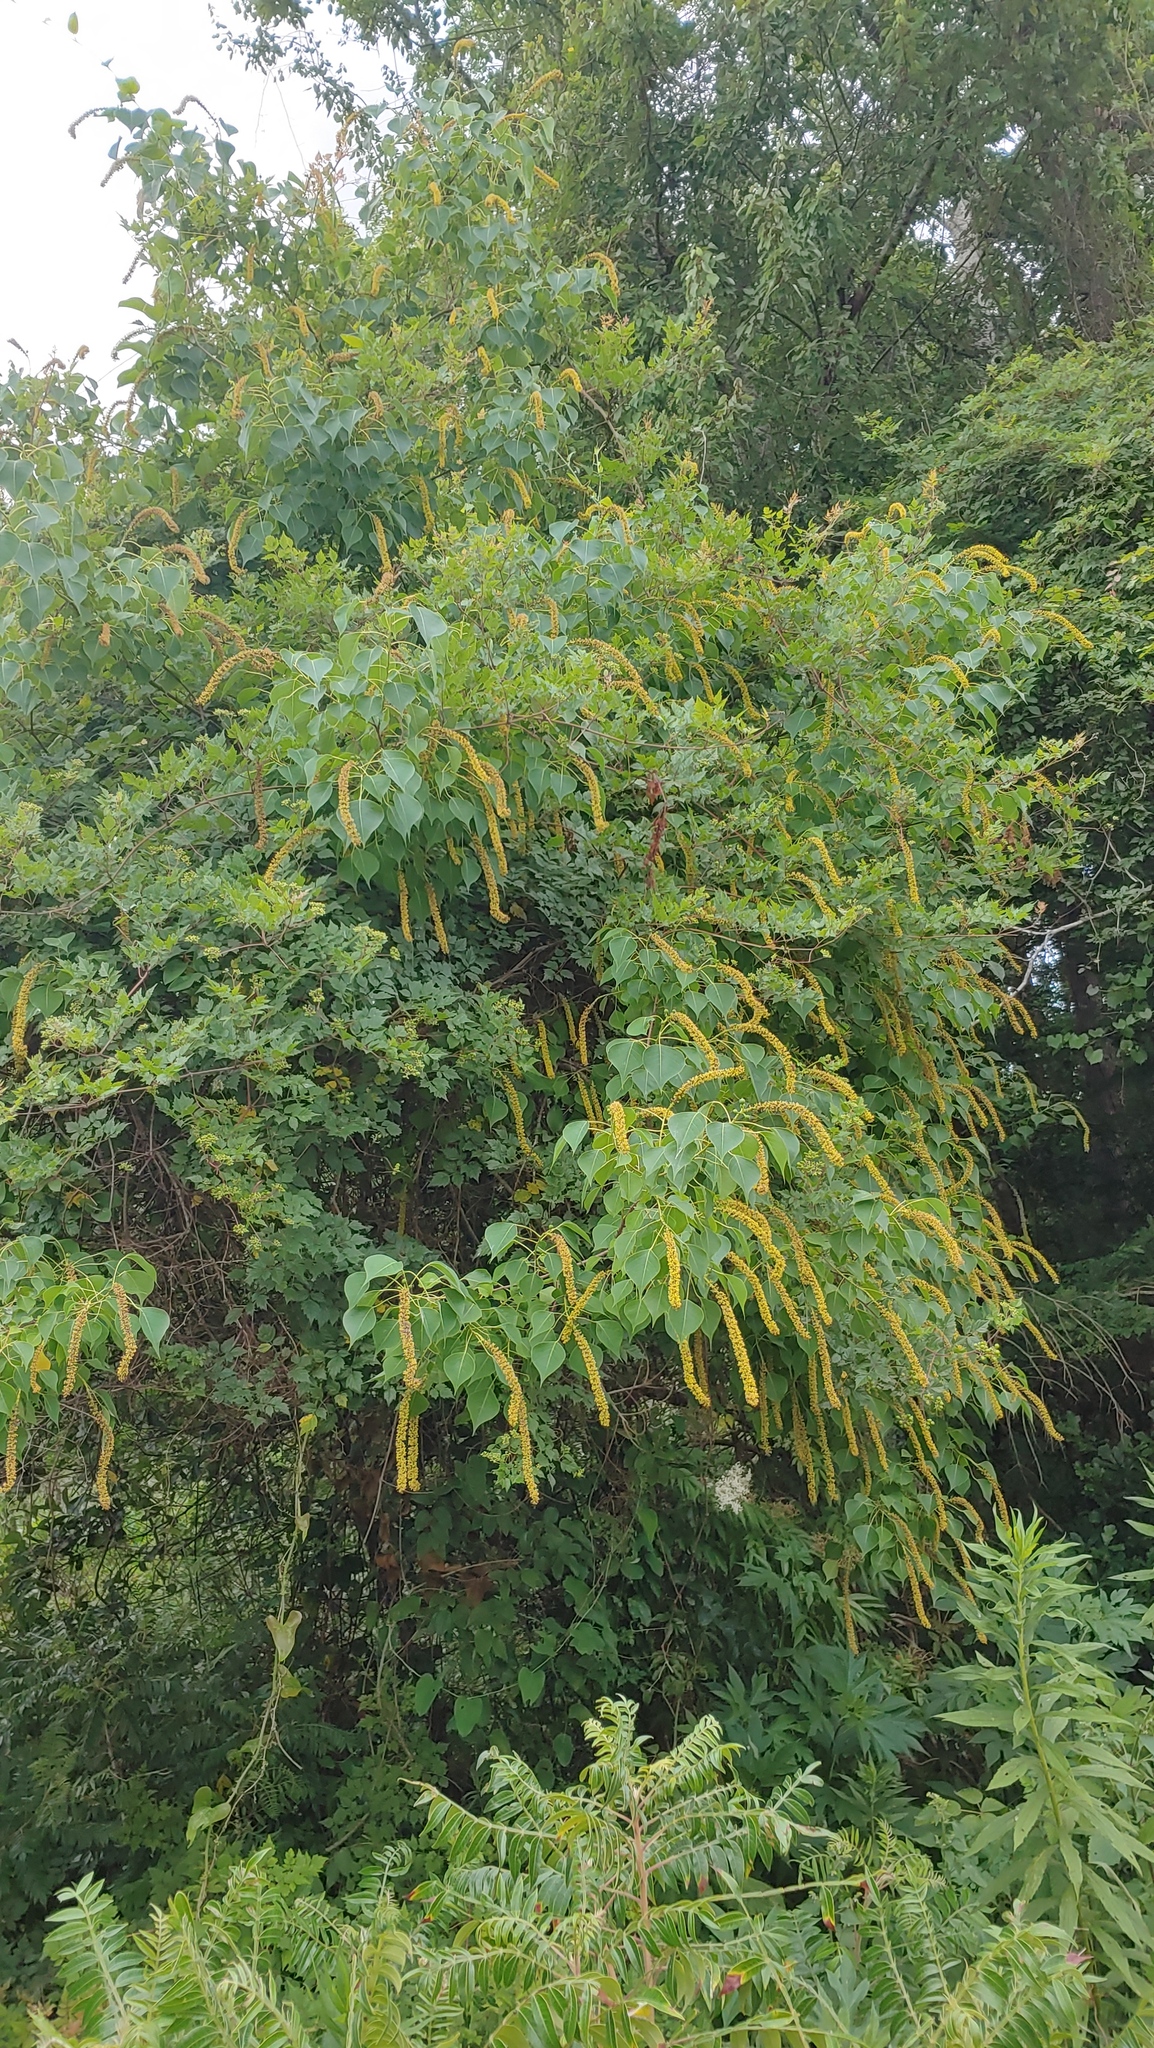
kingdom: Plantae
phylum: Tracheophyta
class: Magnoliopsida
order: Malpighiales
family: Euphorbiaceae
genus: Triadica
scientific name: Triadica sebifera
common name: Chinese tallow
